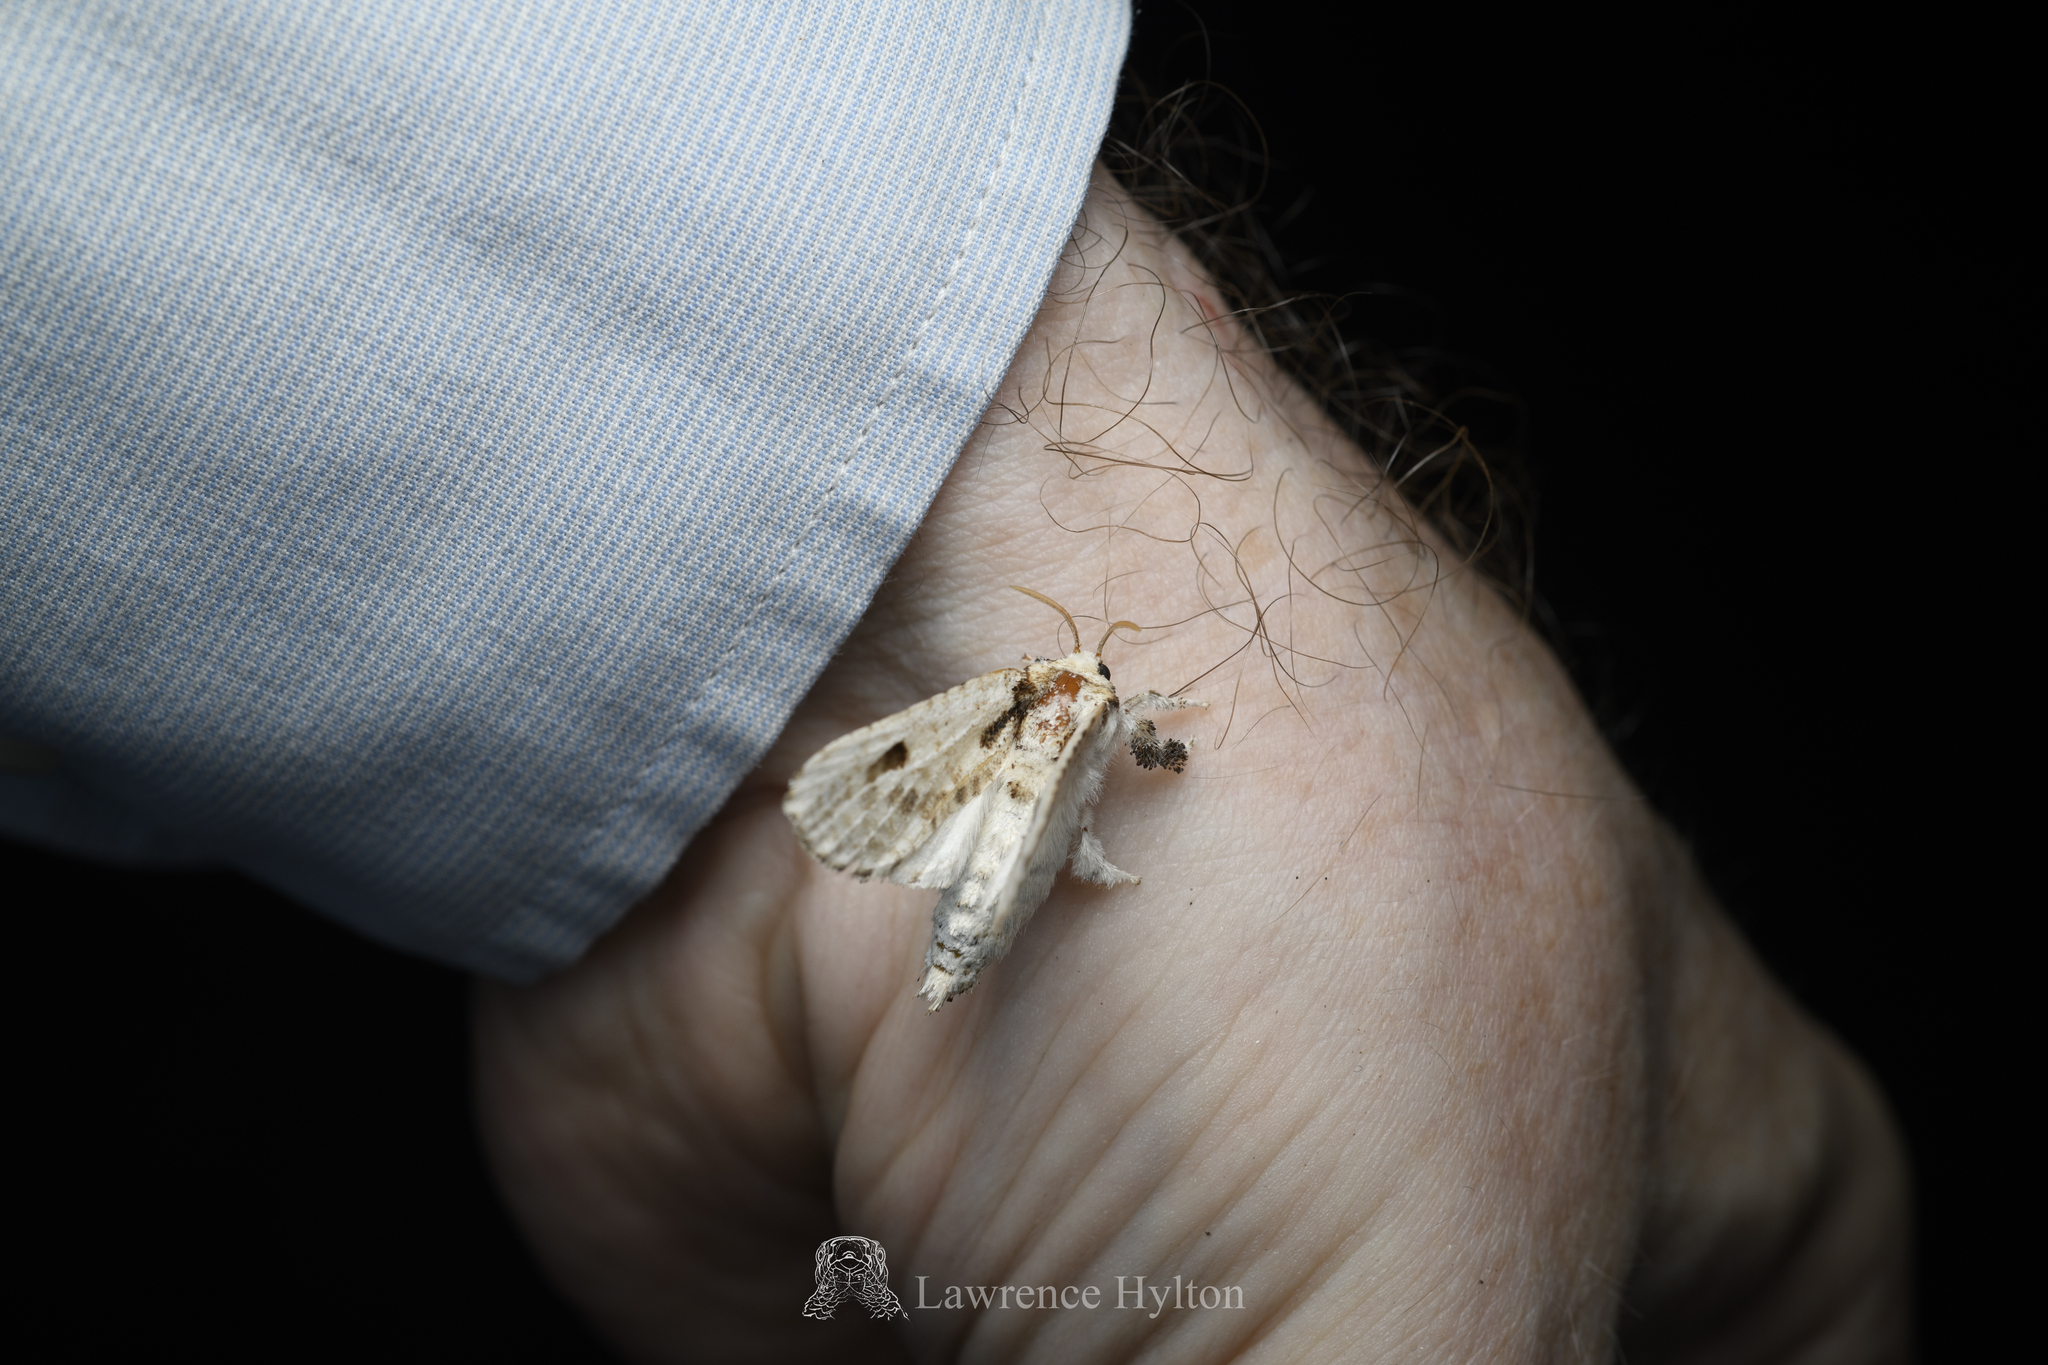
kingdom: Animalia
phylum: Arthropoda
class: Insecta
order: Lepidoptera
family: Metarbelidae
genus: Indarbela
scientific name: Indarbela obliquifasciata
